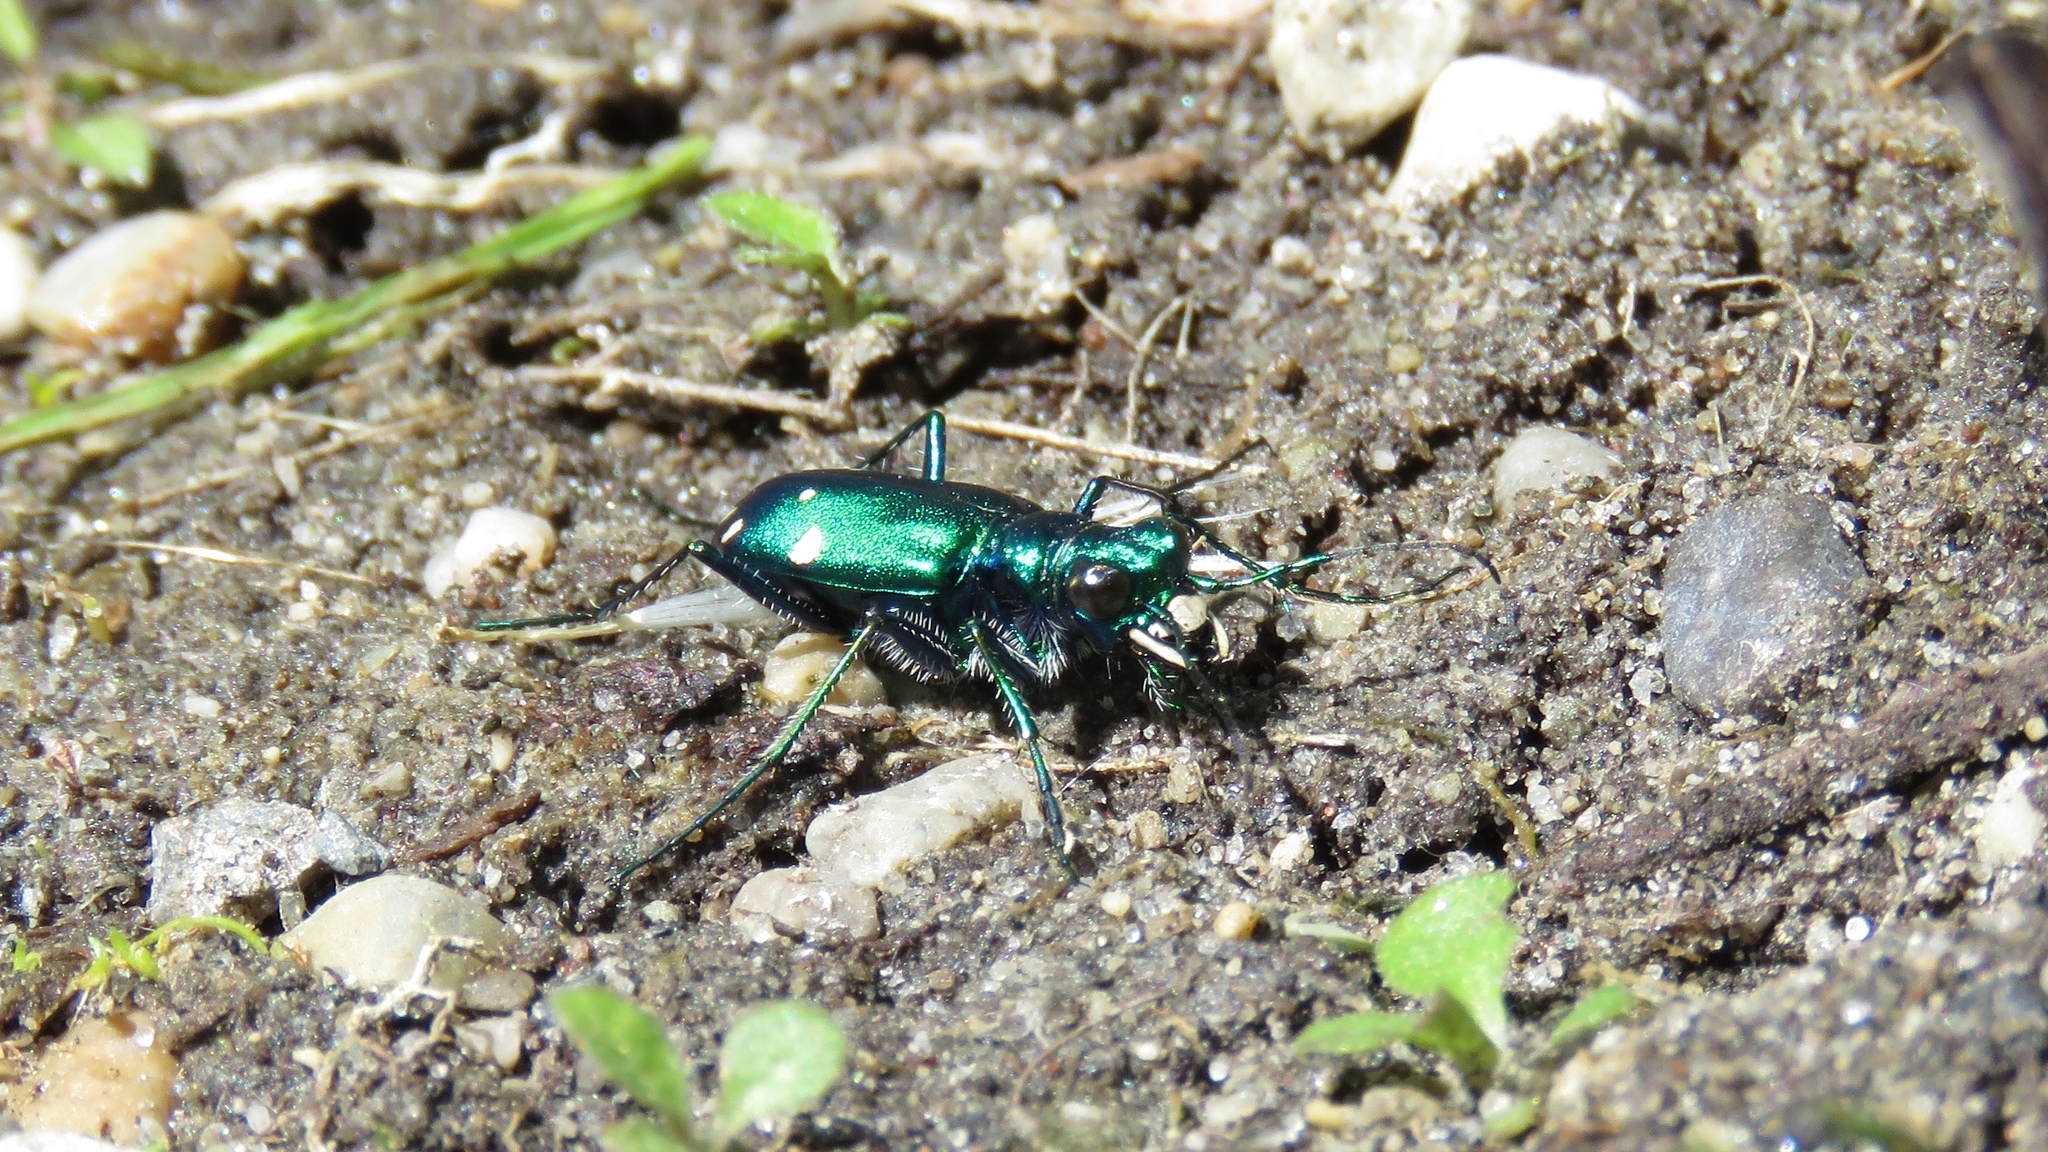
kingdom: Animalia
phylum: Arthropoda
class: Insecta
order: Coleoptera
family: Carabidae
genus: Cicindela
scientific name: Cicindela sexguttata
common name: Six-spotted tiger beetle
